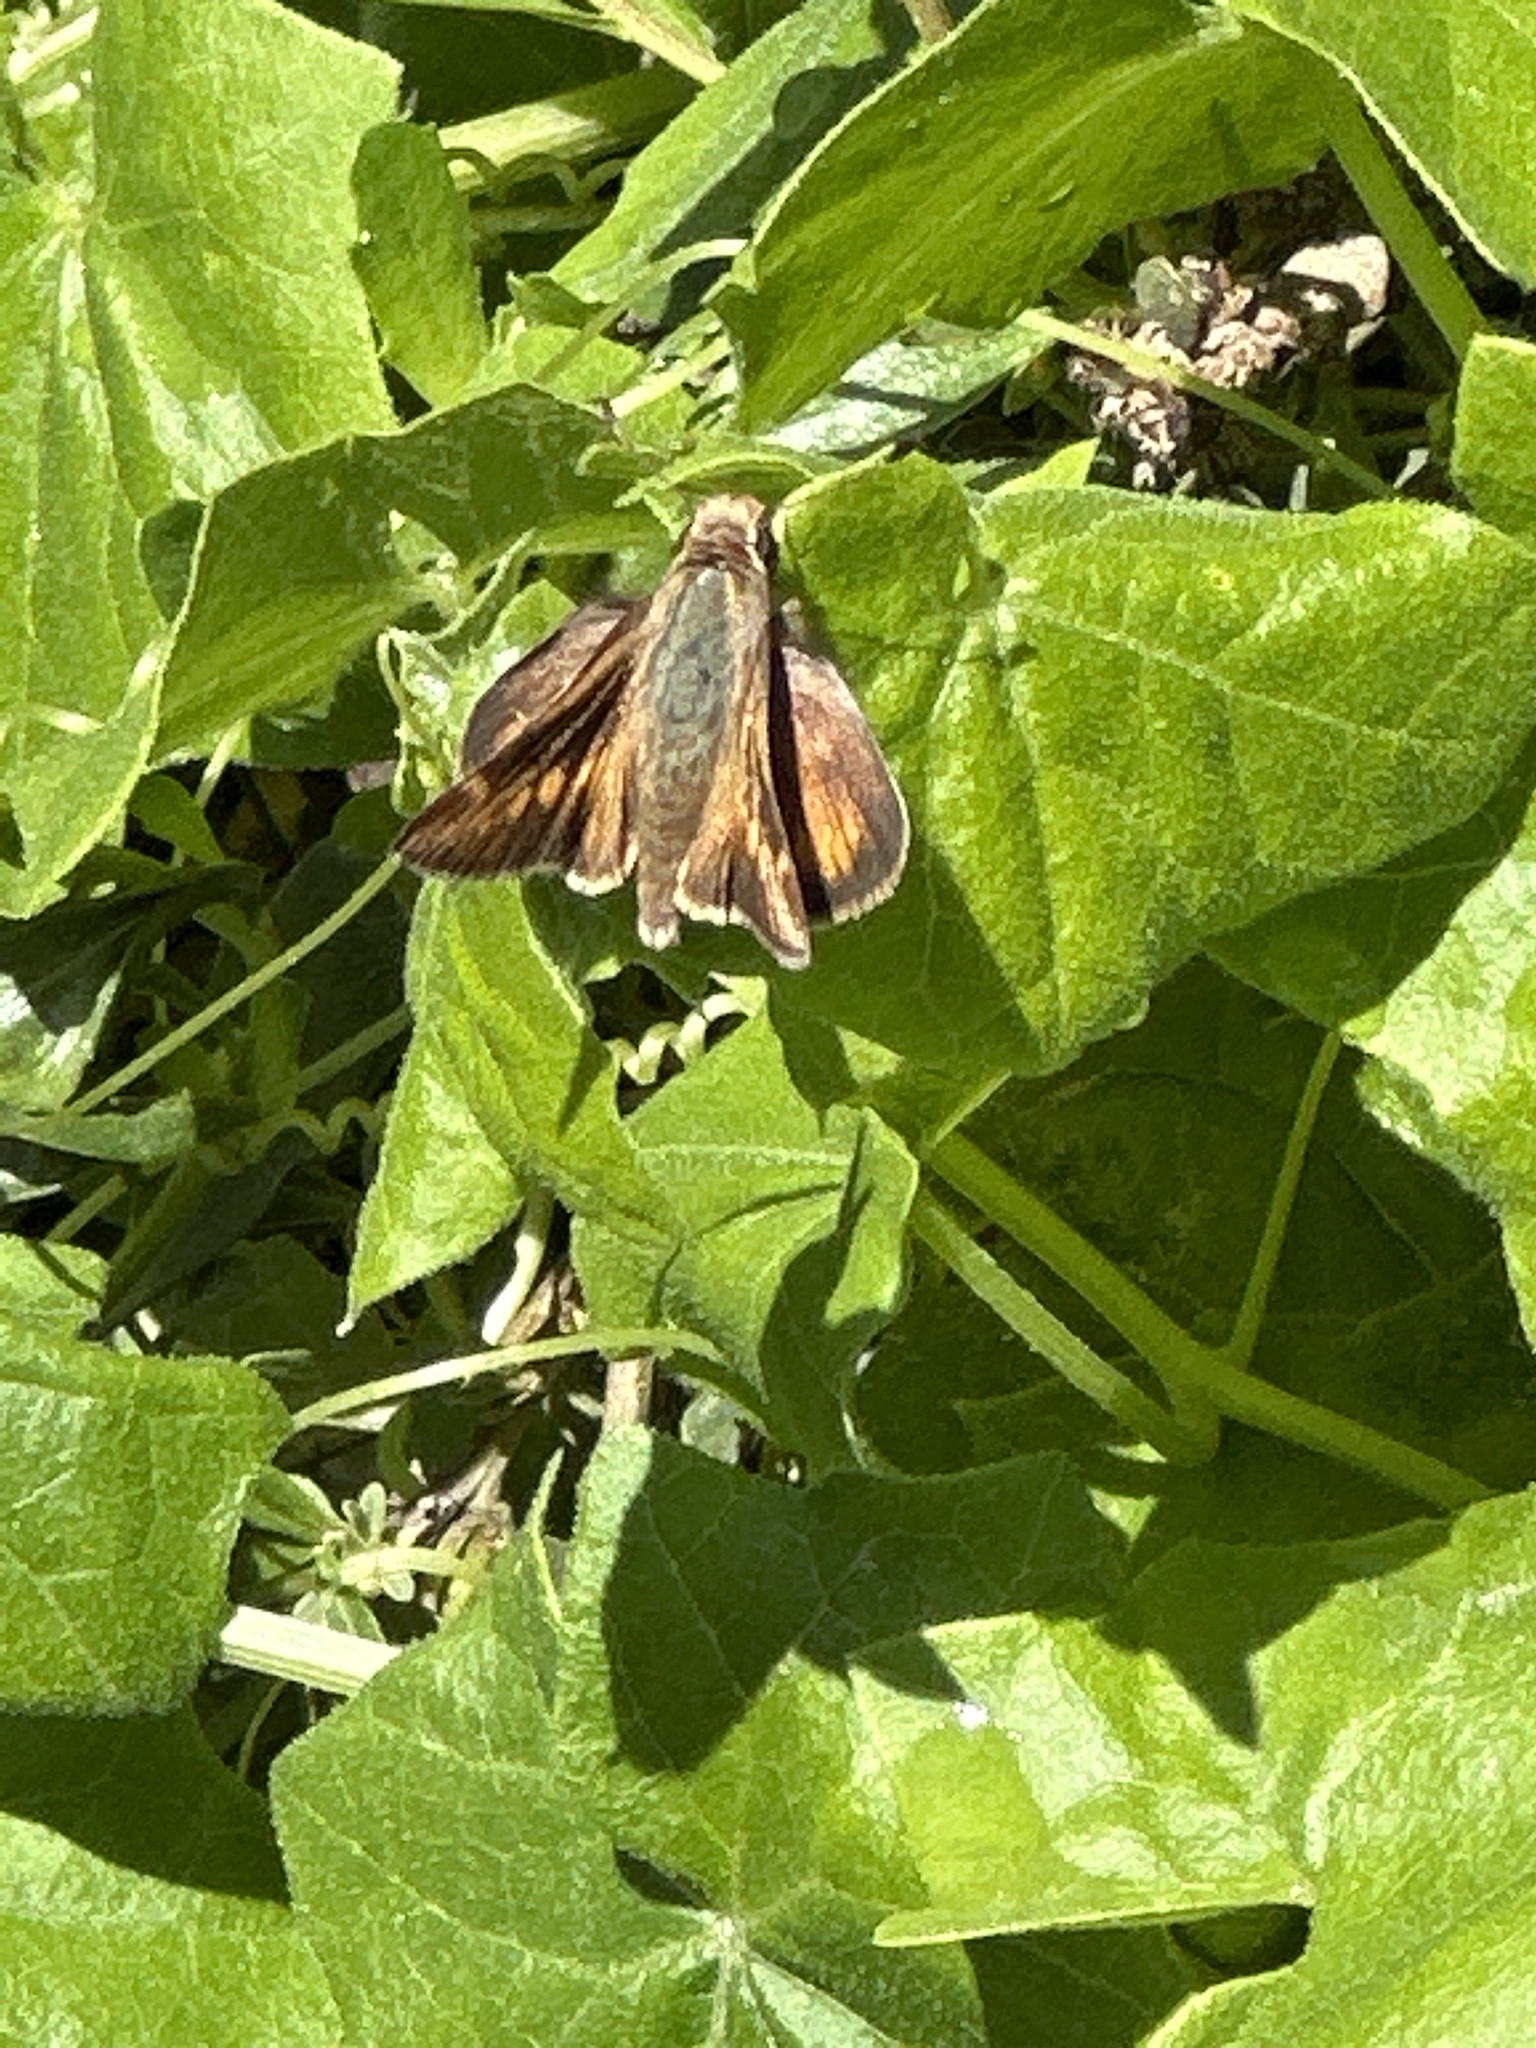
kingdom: Animalia
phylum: Arthropoda
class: Insecta
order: Lepidoptera
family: Hesperiidae
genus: Lon
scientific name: Lon melane
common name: Umber skipper
